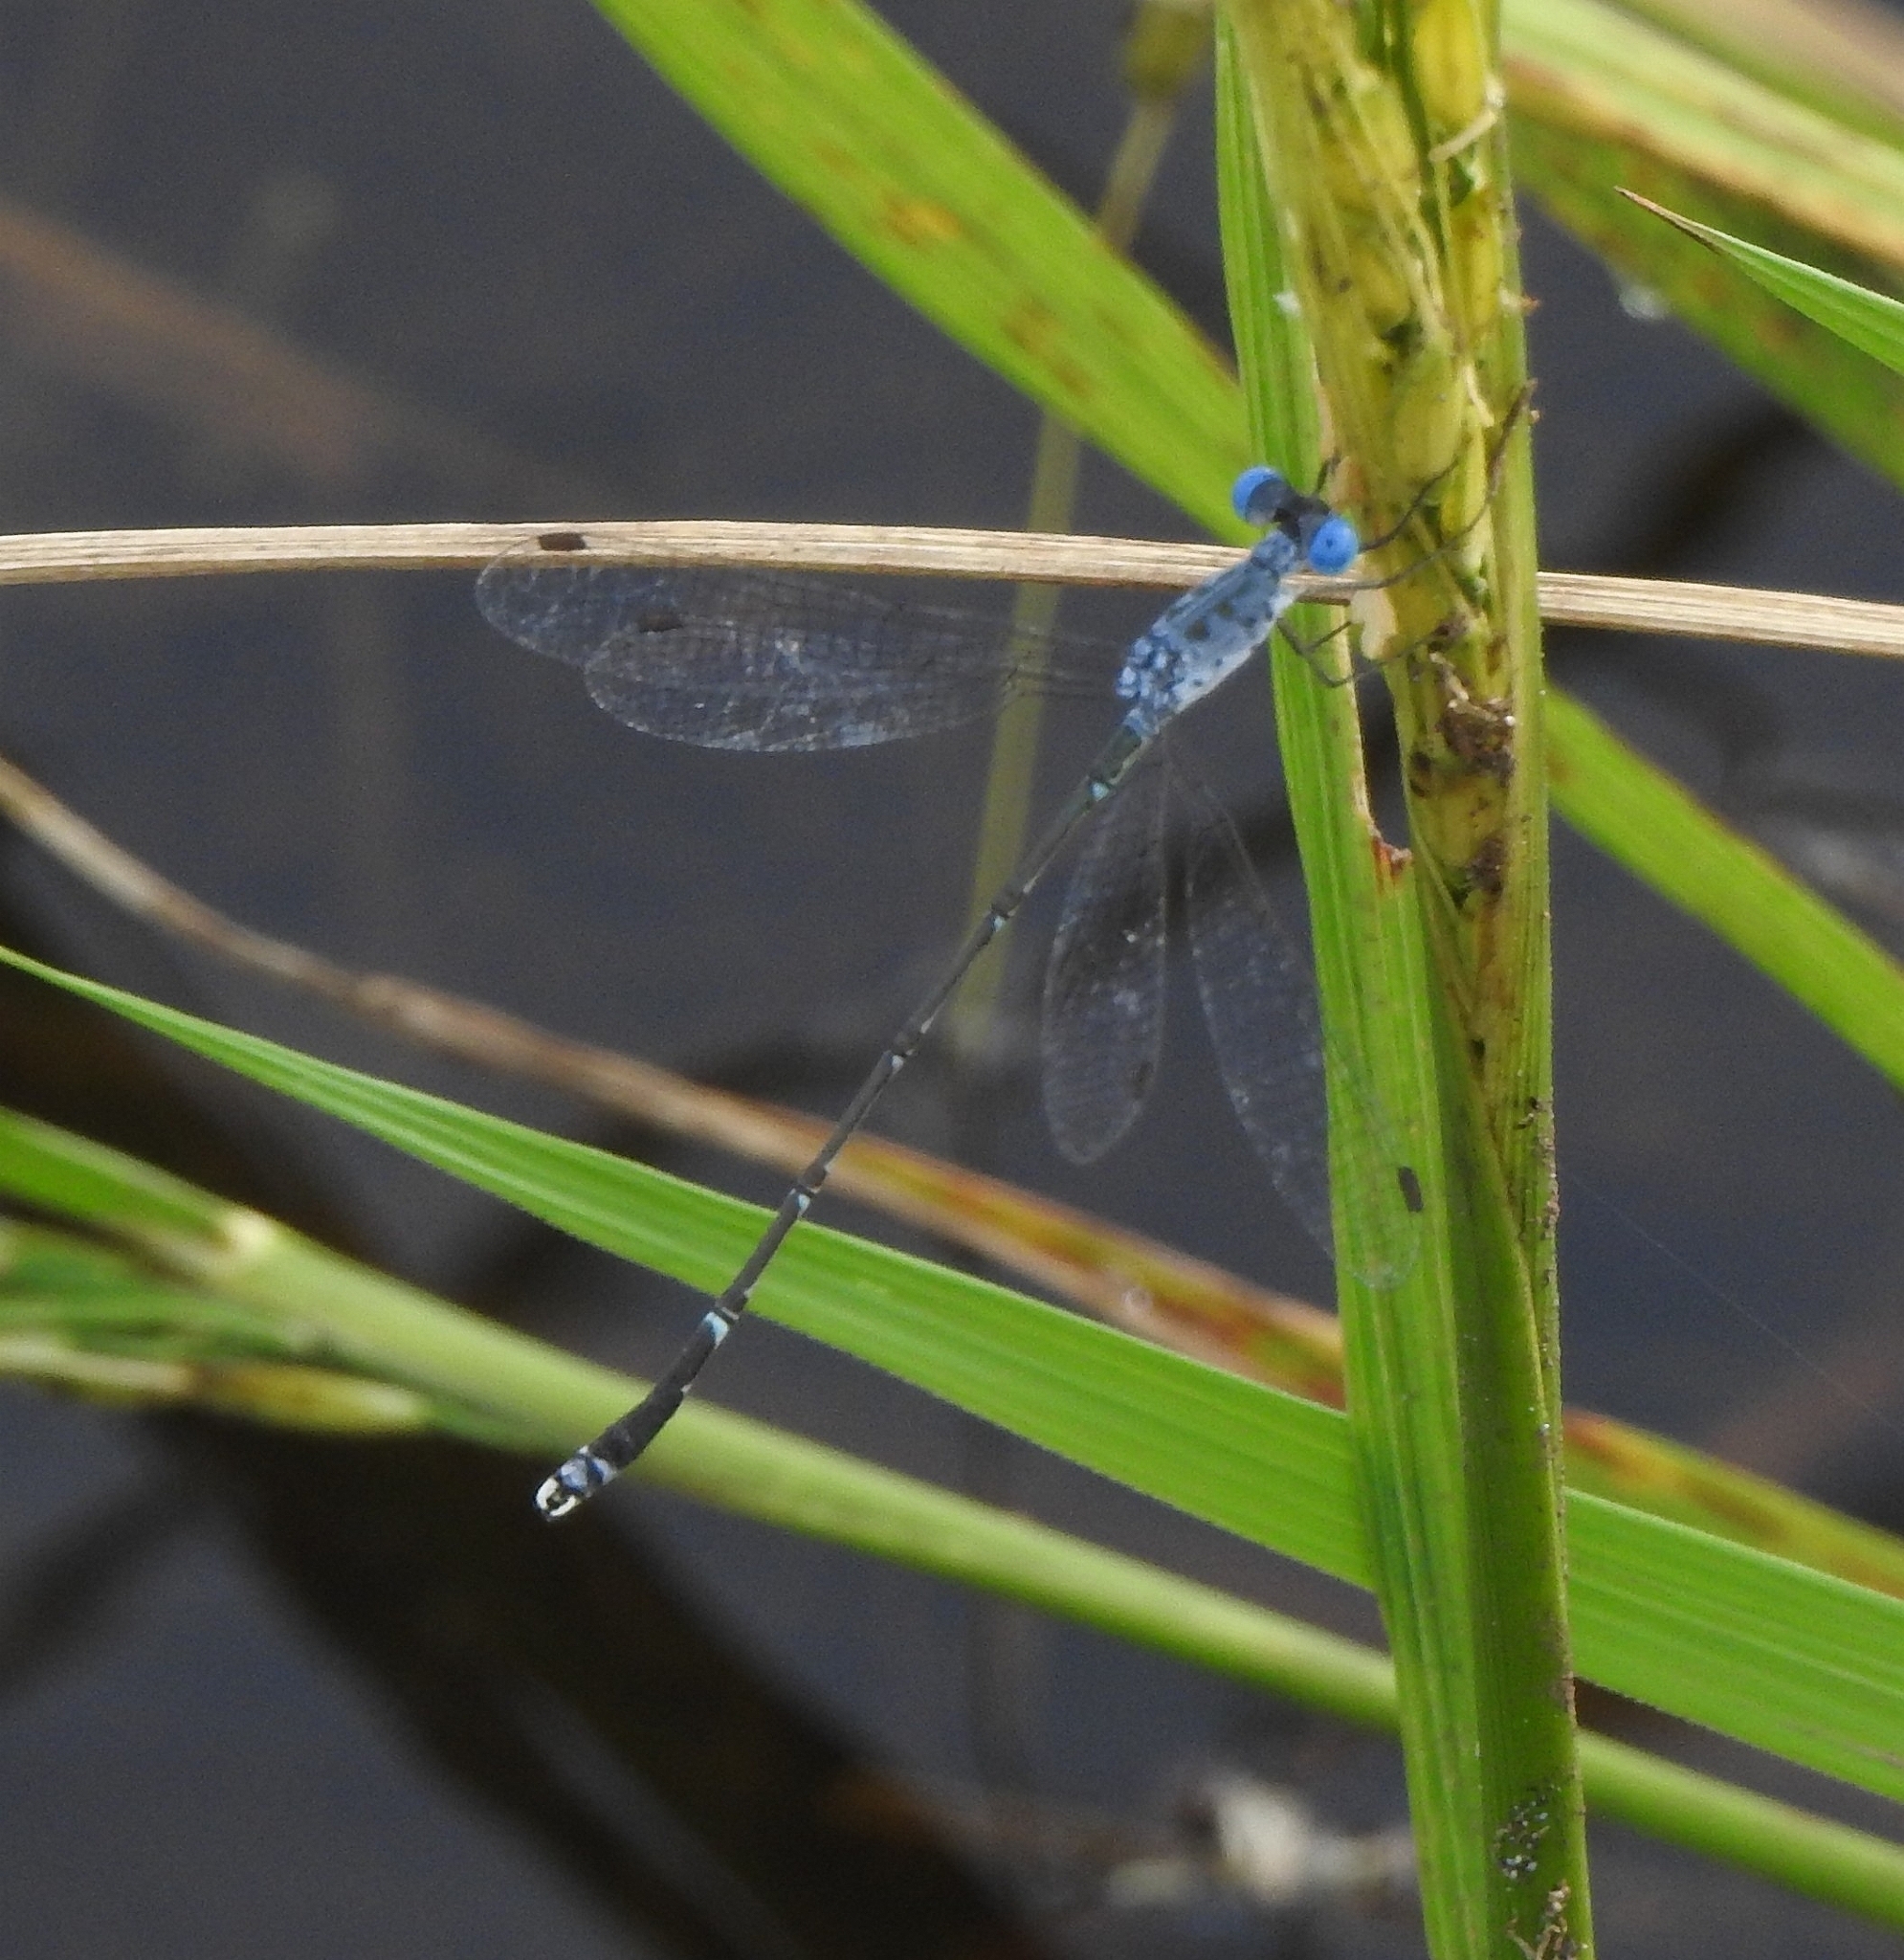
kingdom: Animalia
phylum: Arthropoda
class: Insecta
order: Odonata
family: Lestidae
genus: Lestes
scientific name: Lestes praemorsus
